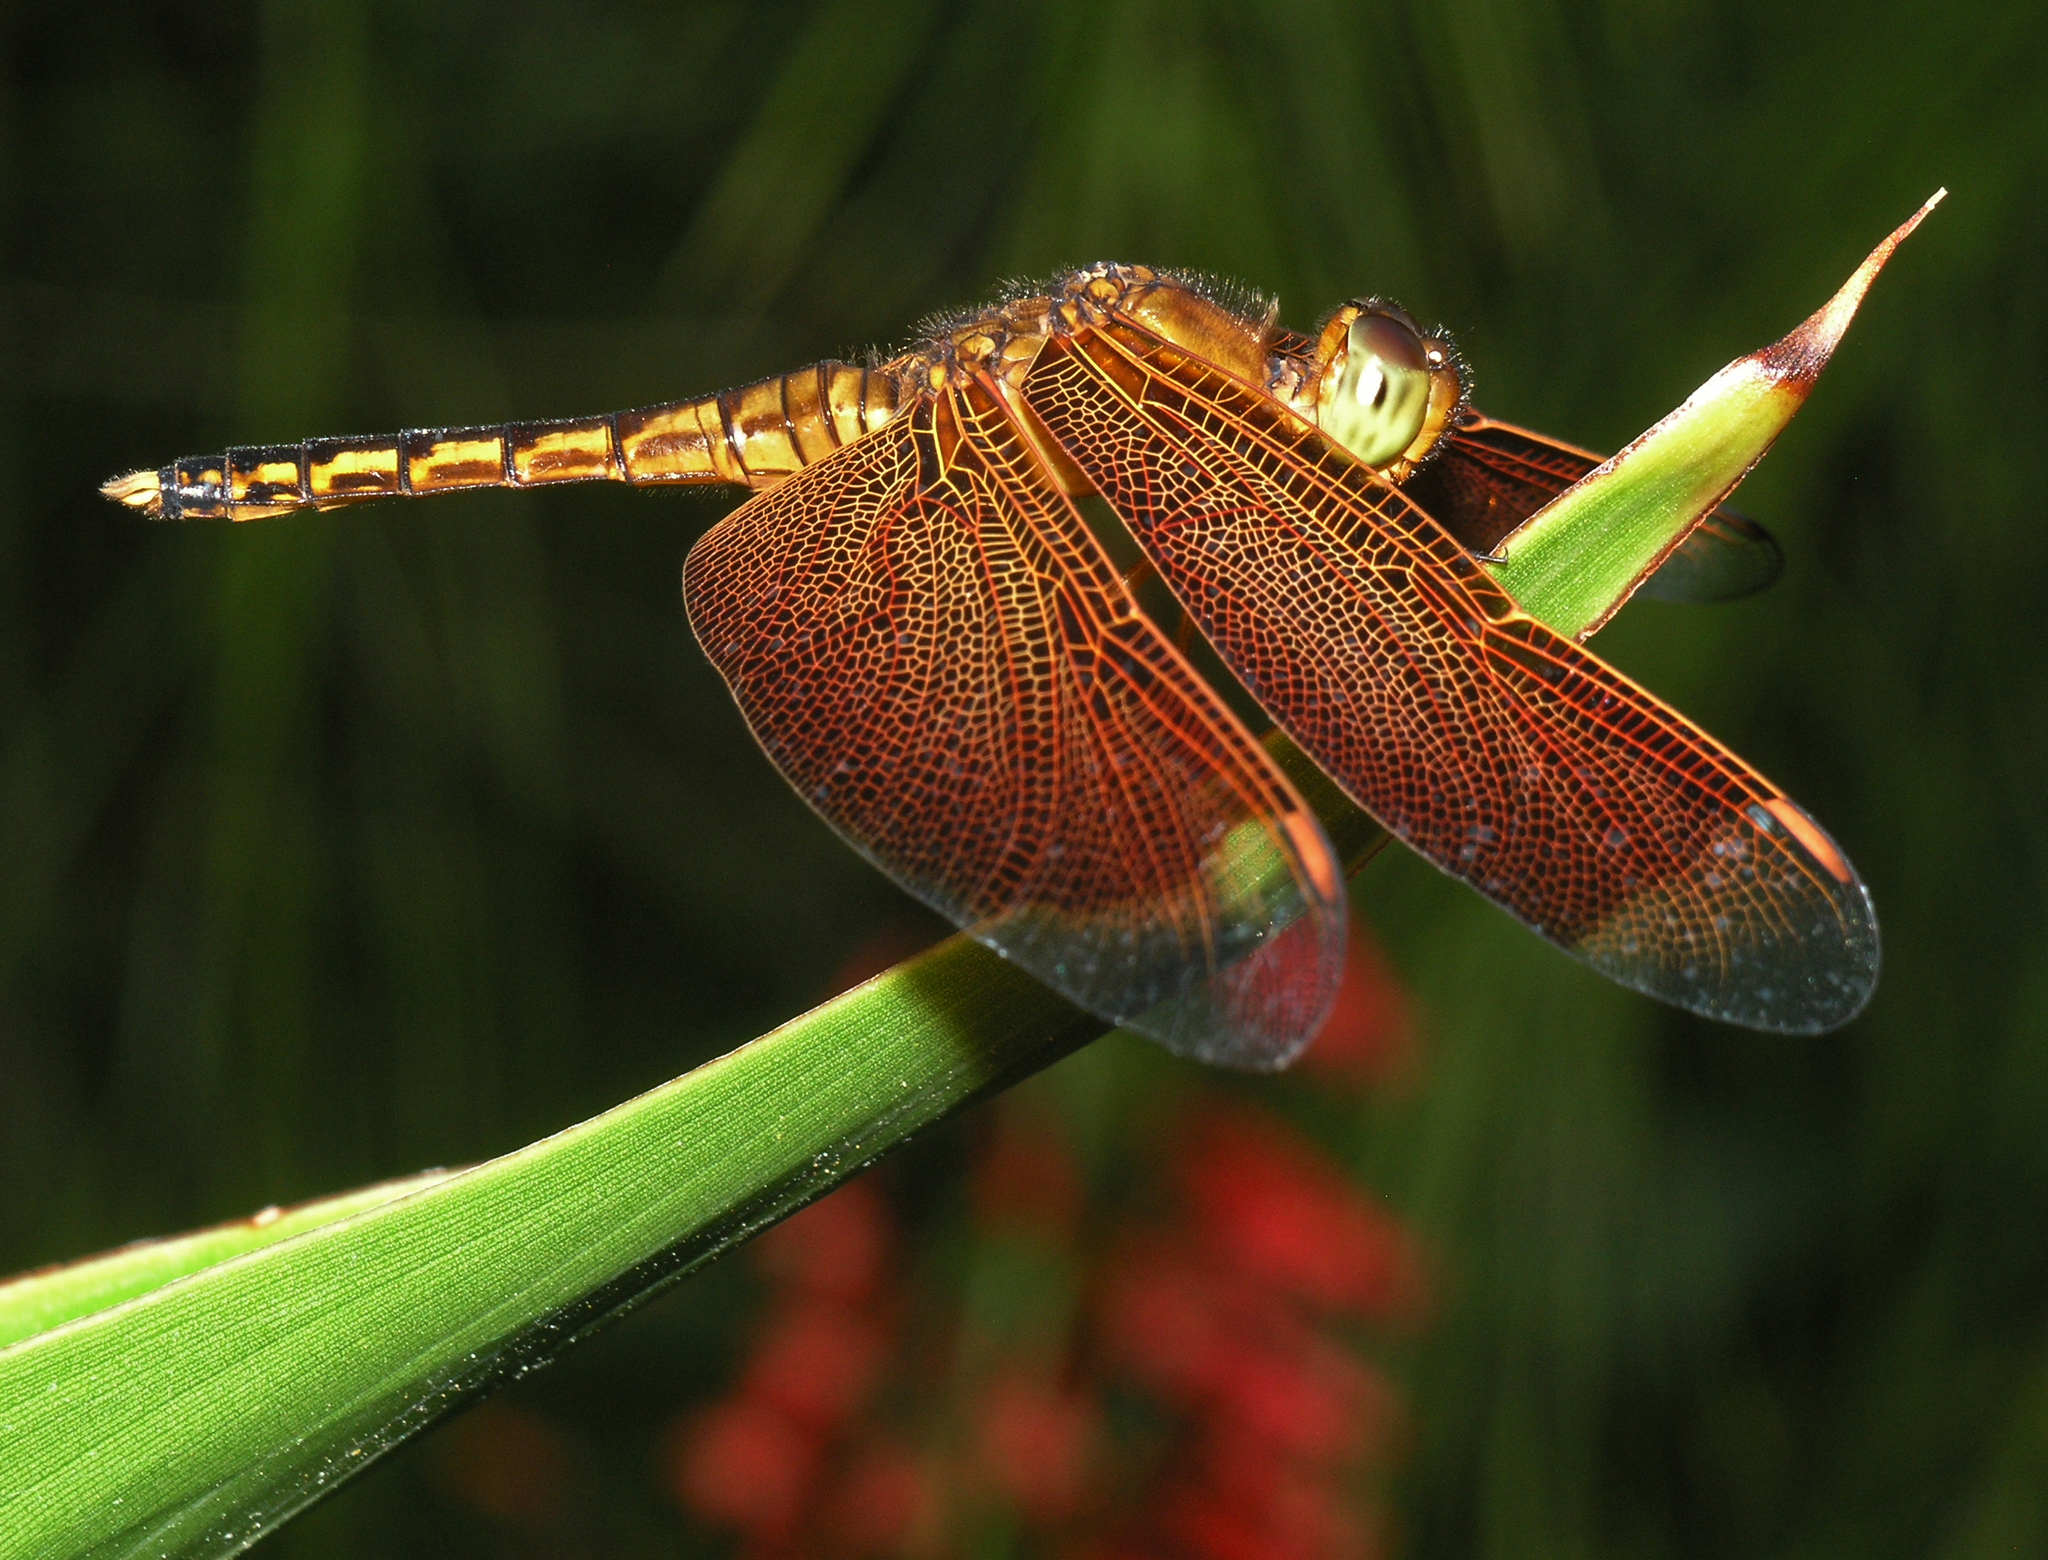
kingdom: Animalia
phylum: Arthropoda
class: Insecta
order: Odonata
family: Libellulidae
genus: Neurothemis
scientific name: Neurothemis ramburii
